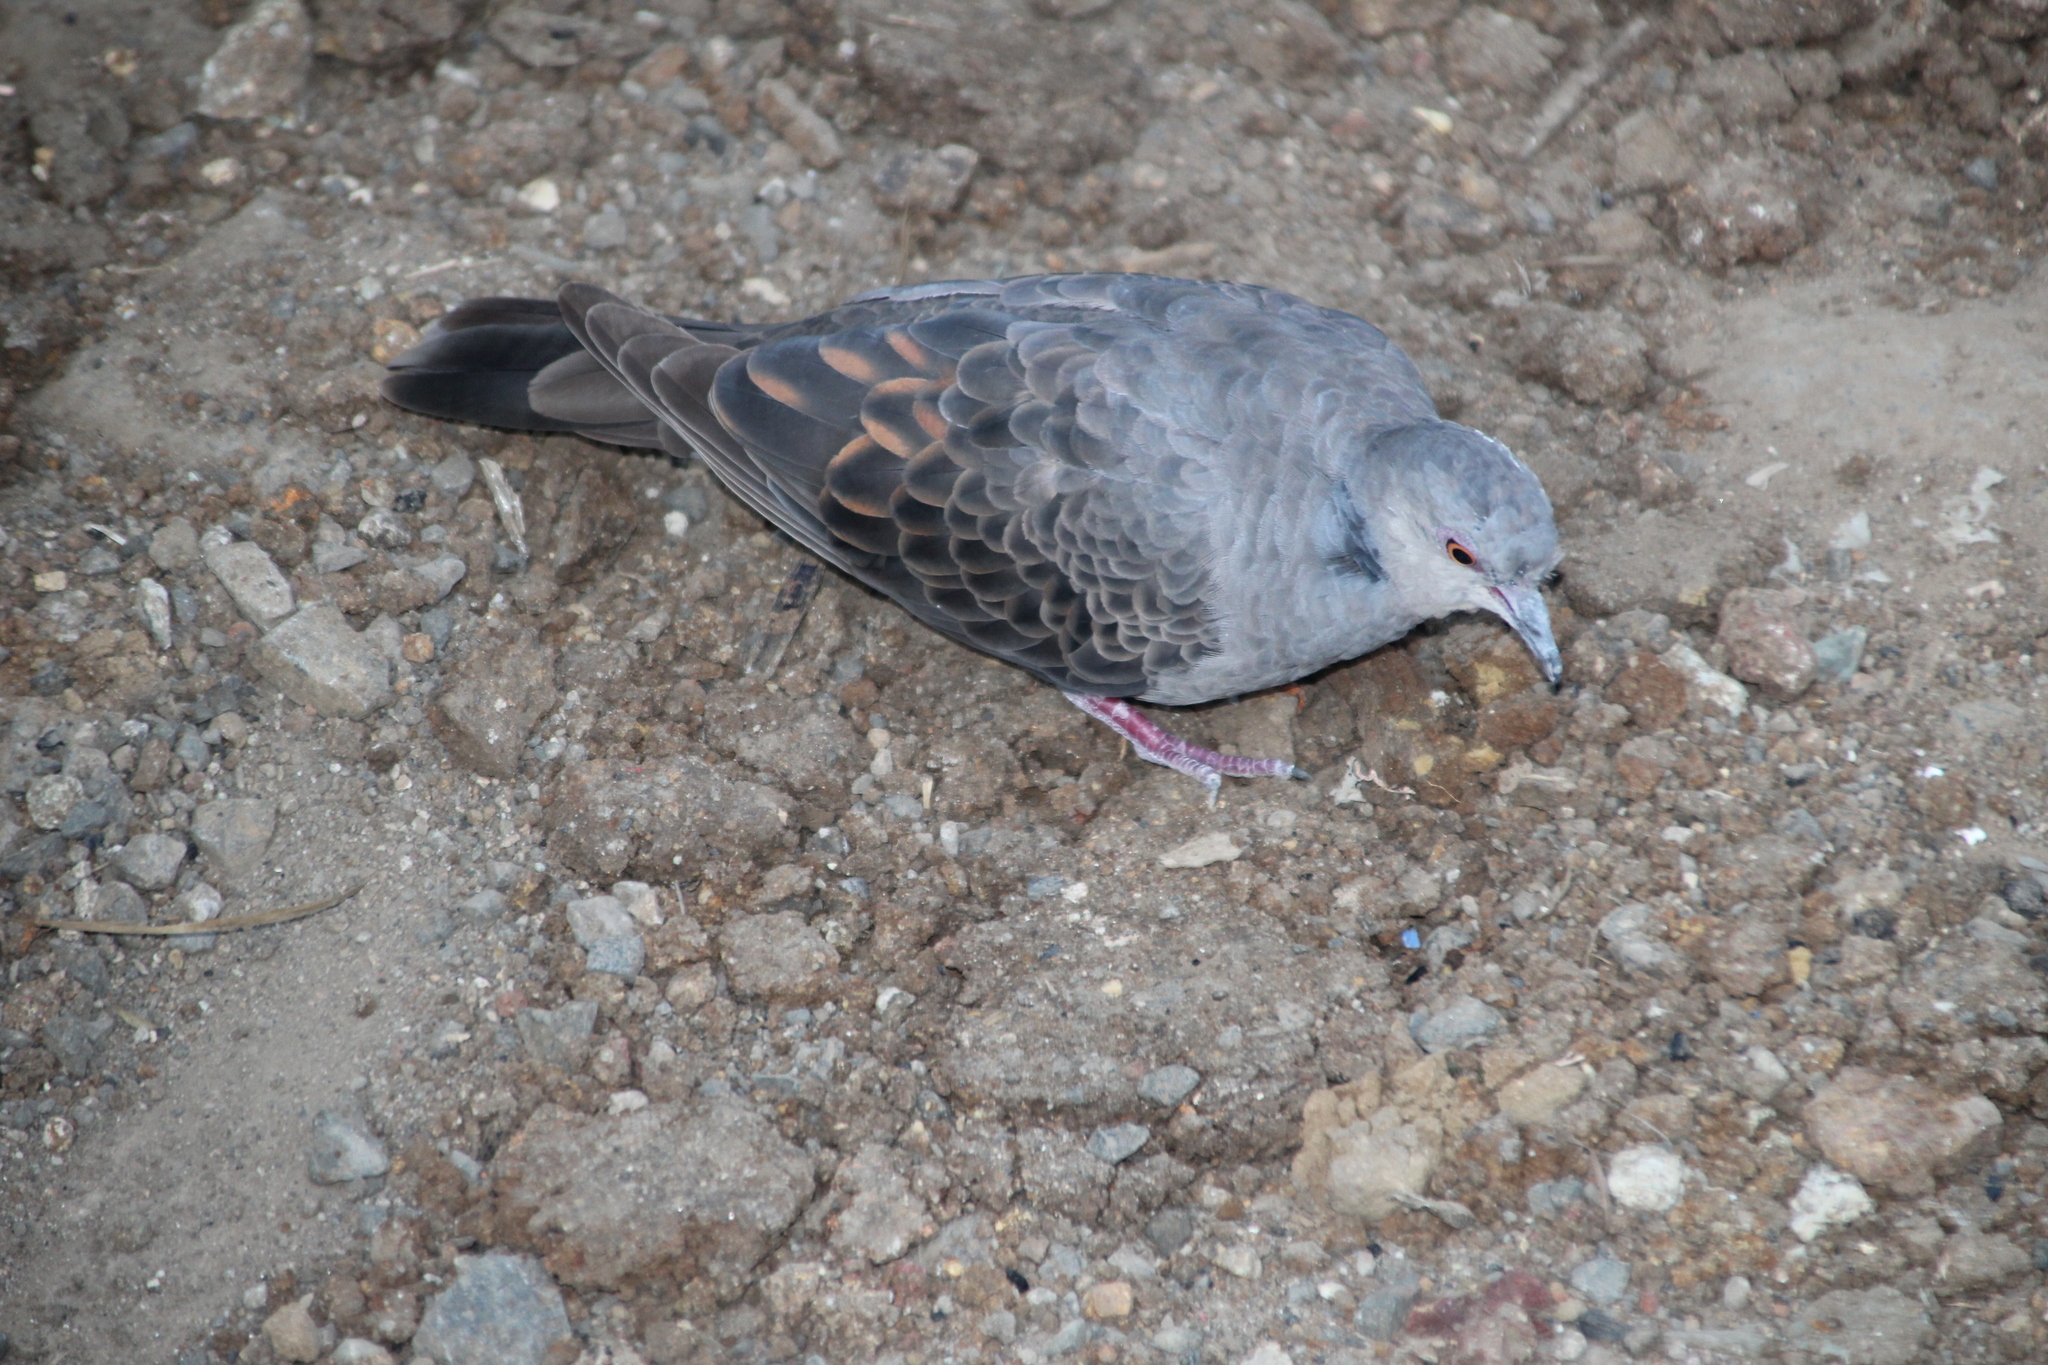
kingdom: Animalia
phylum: Chordata
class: Aves
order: Columbiformes
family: Columbidae
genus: Streptopelia
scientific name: Streptopelia lugens
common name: Dusky turtle dove
